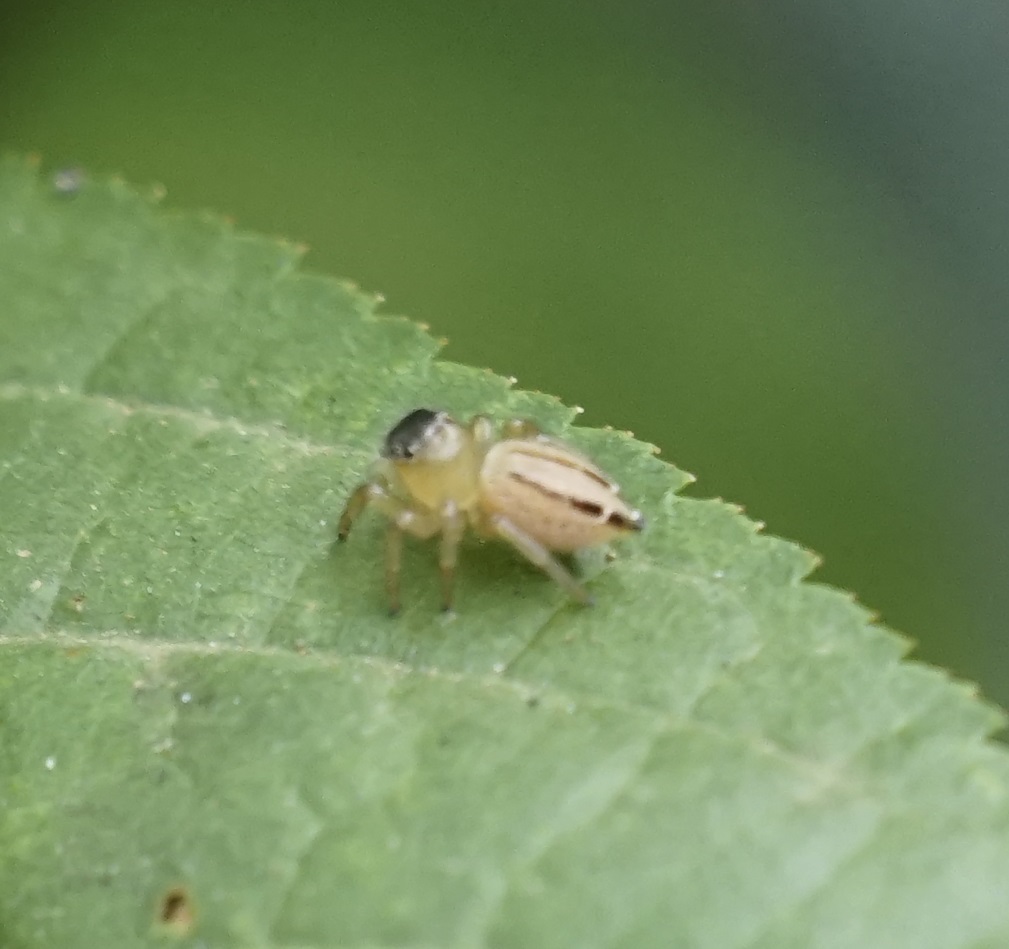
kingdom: Animalia
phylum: Arthropoda
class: Arachnida
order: Araneae
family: Salticidae
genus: Maratus
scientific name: Maratus scutulatus
